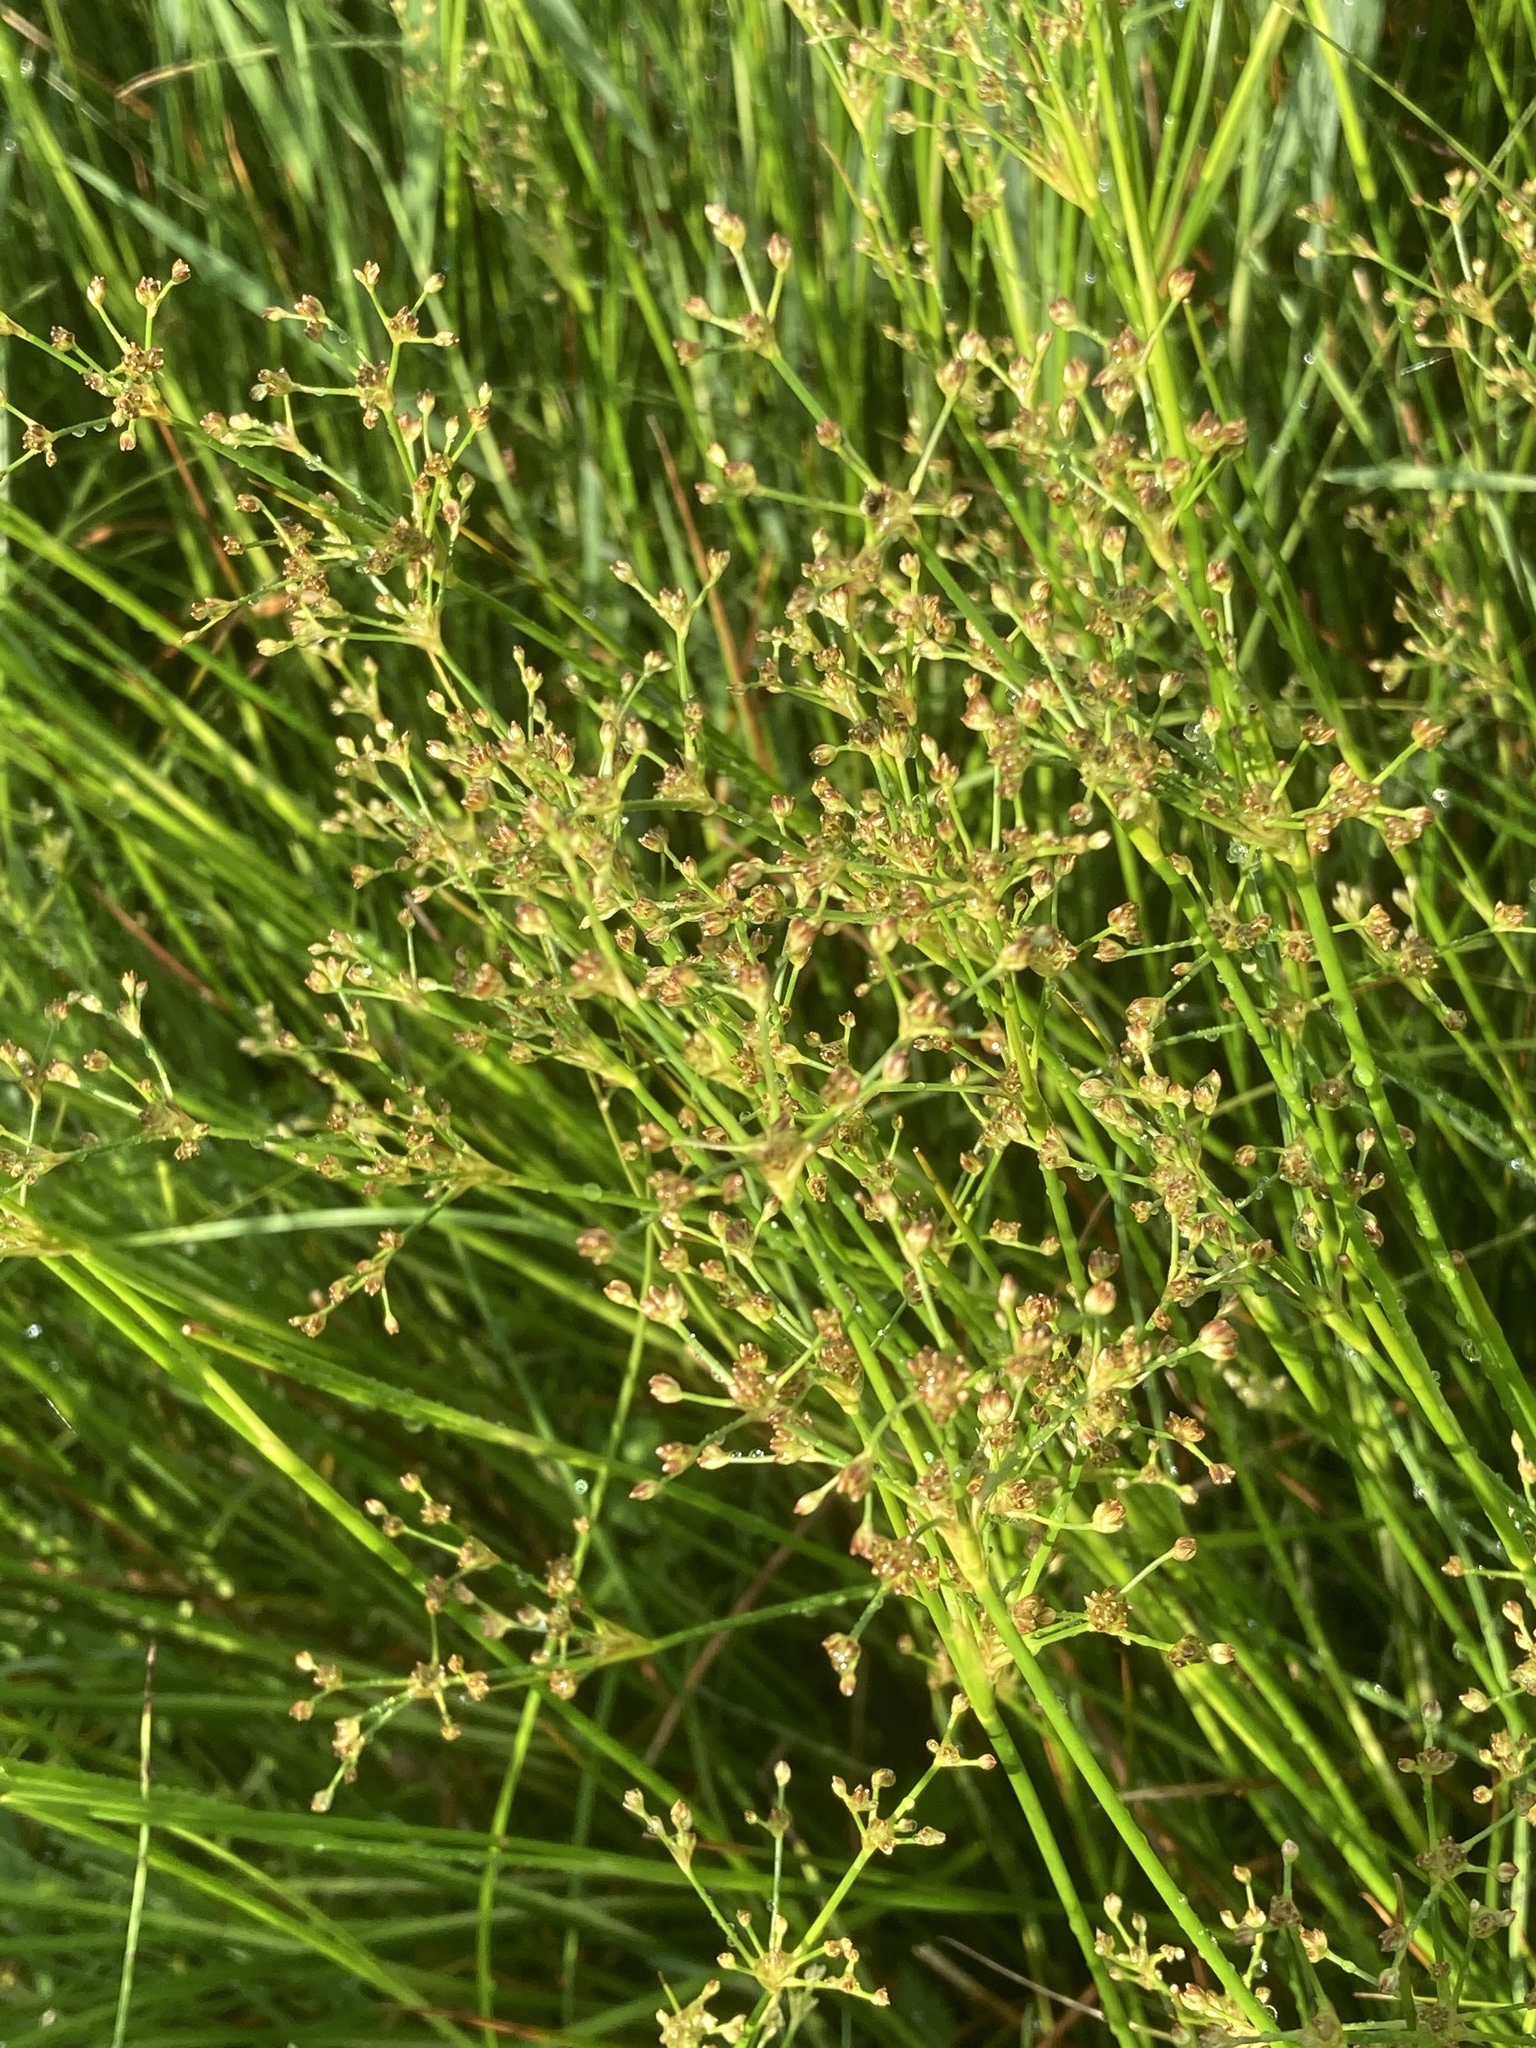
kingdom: Plantae
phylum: Tracheophyta
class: Liliopsida
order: Poales
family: Juncaceae
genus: Juncus
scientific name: Juncus subnodulosus
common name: Blunt-flowered rush
